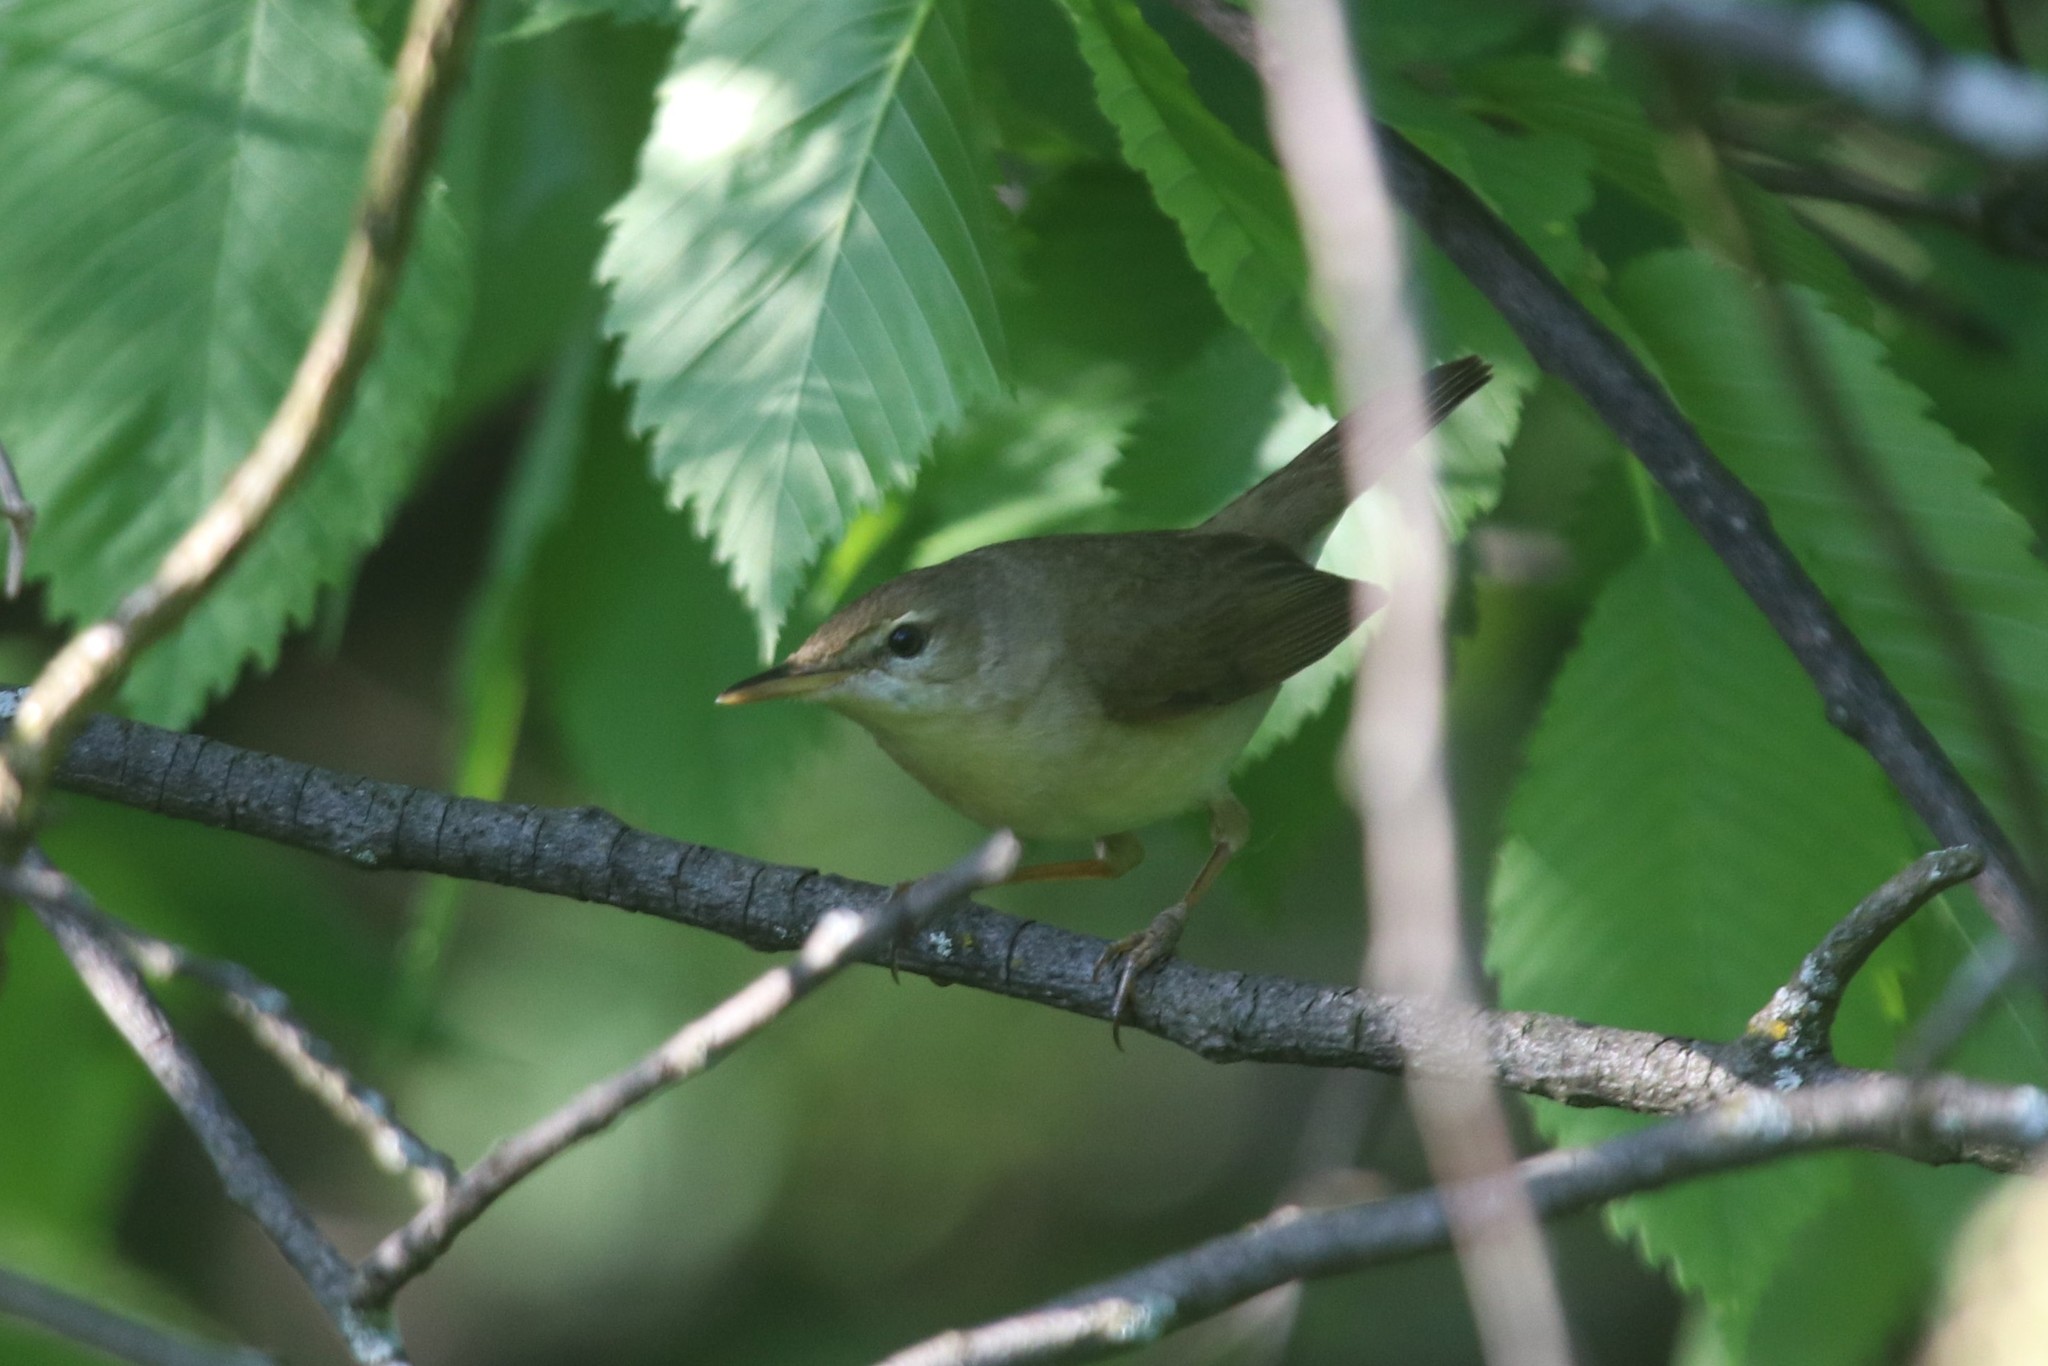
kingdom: Animalia
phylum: Chordata
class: Aves
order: Passeriformes
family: Acrocephalidae
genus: Acrocephalus
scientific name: Acrocephalus dumetorum
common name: Blyth's reed warbler
